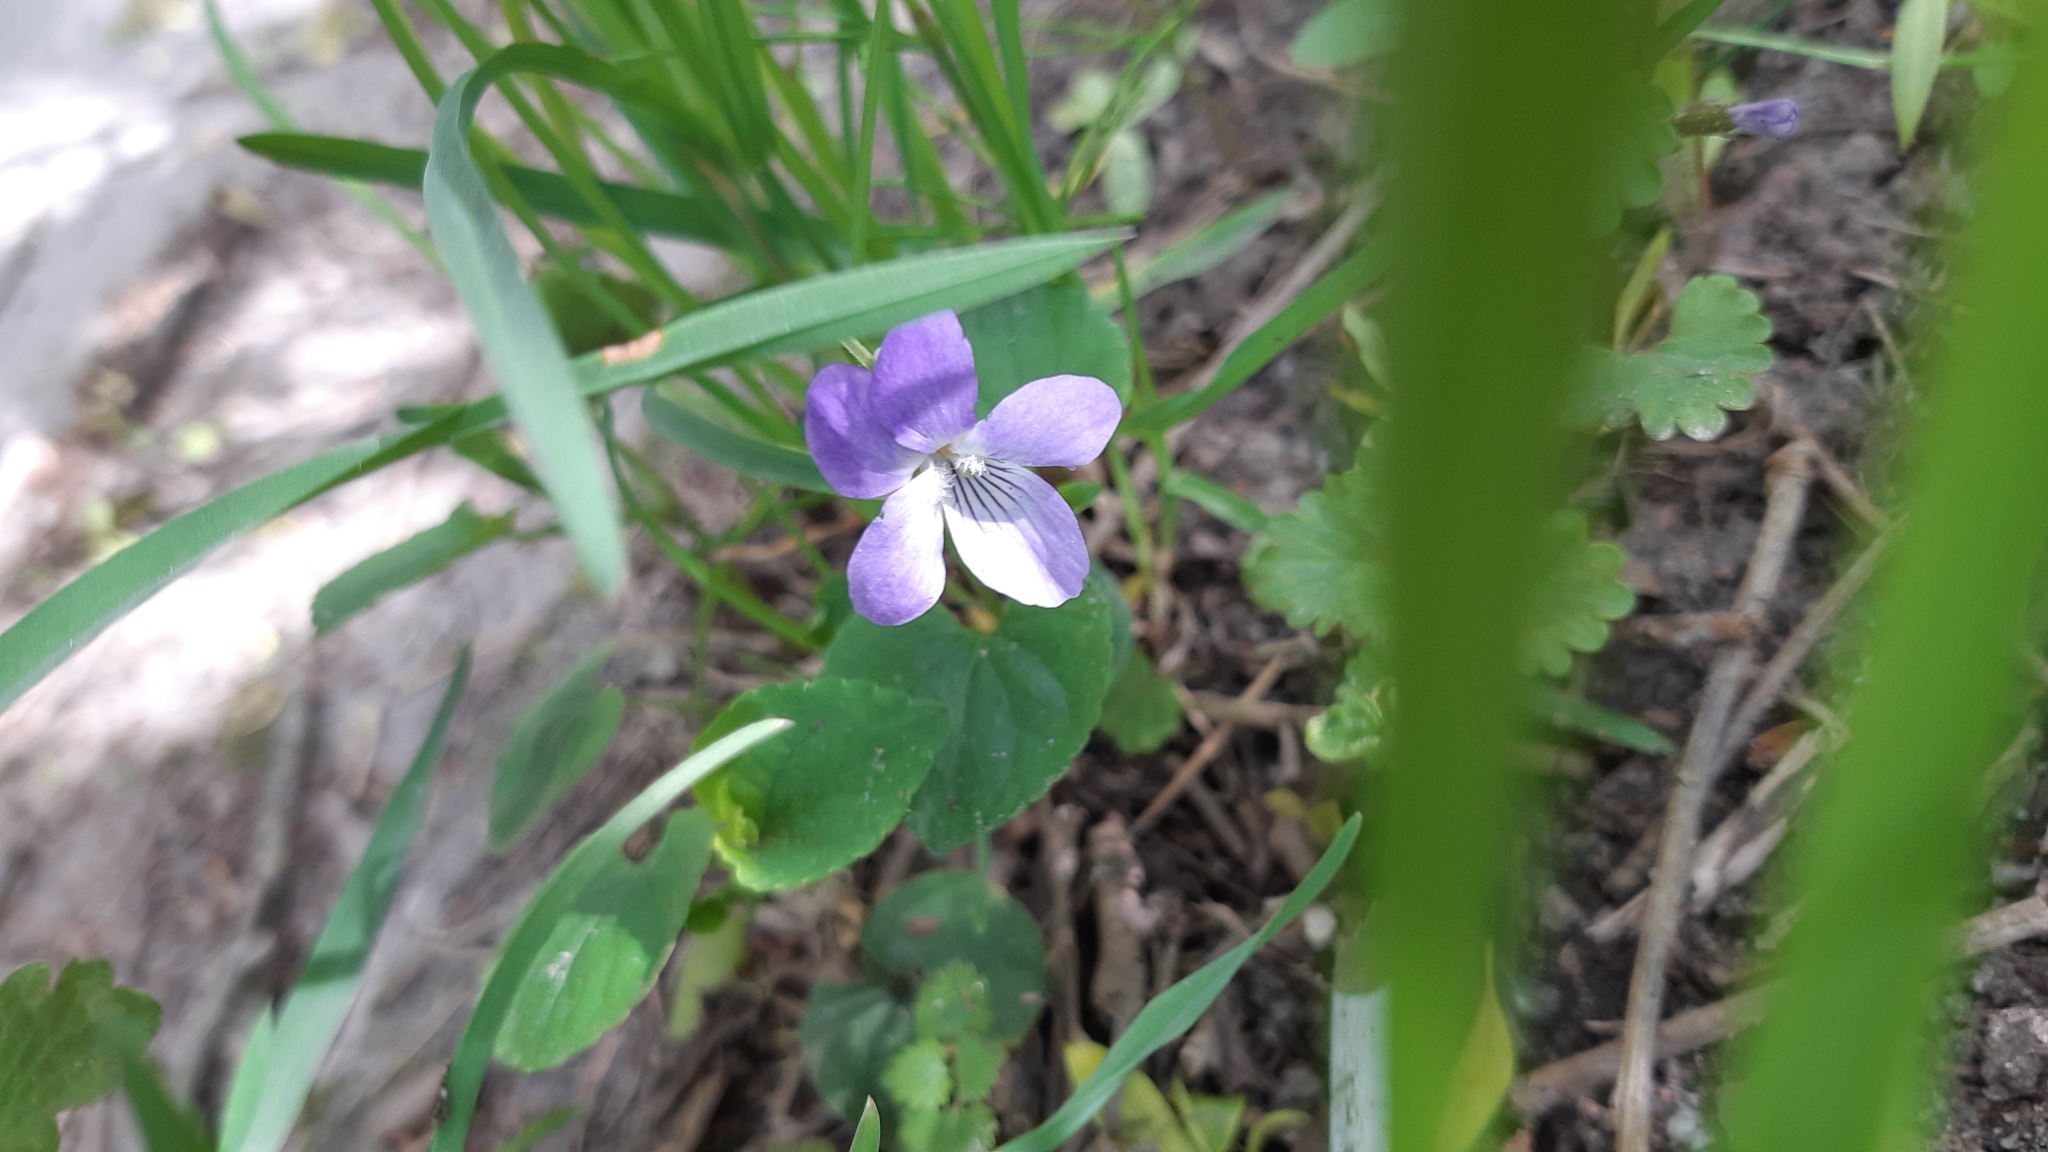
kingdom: Plantae
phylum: Tracheophyta
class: Magnoliopsida
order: Malpighiales
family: Violaceae
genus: Viola
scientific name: Viola riviniana
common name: Common dog-violet
